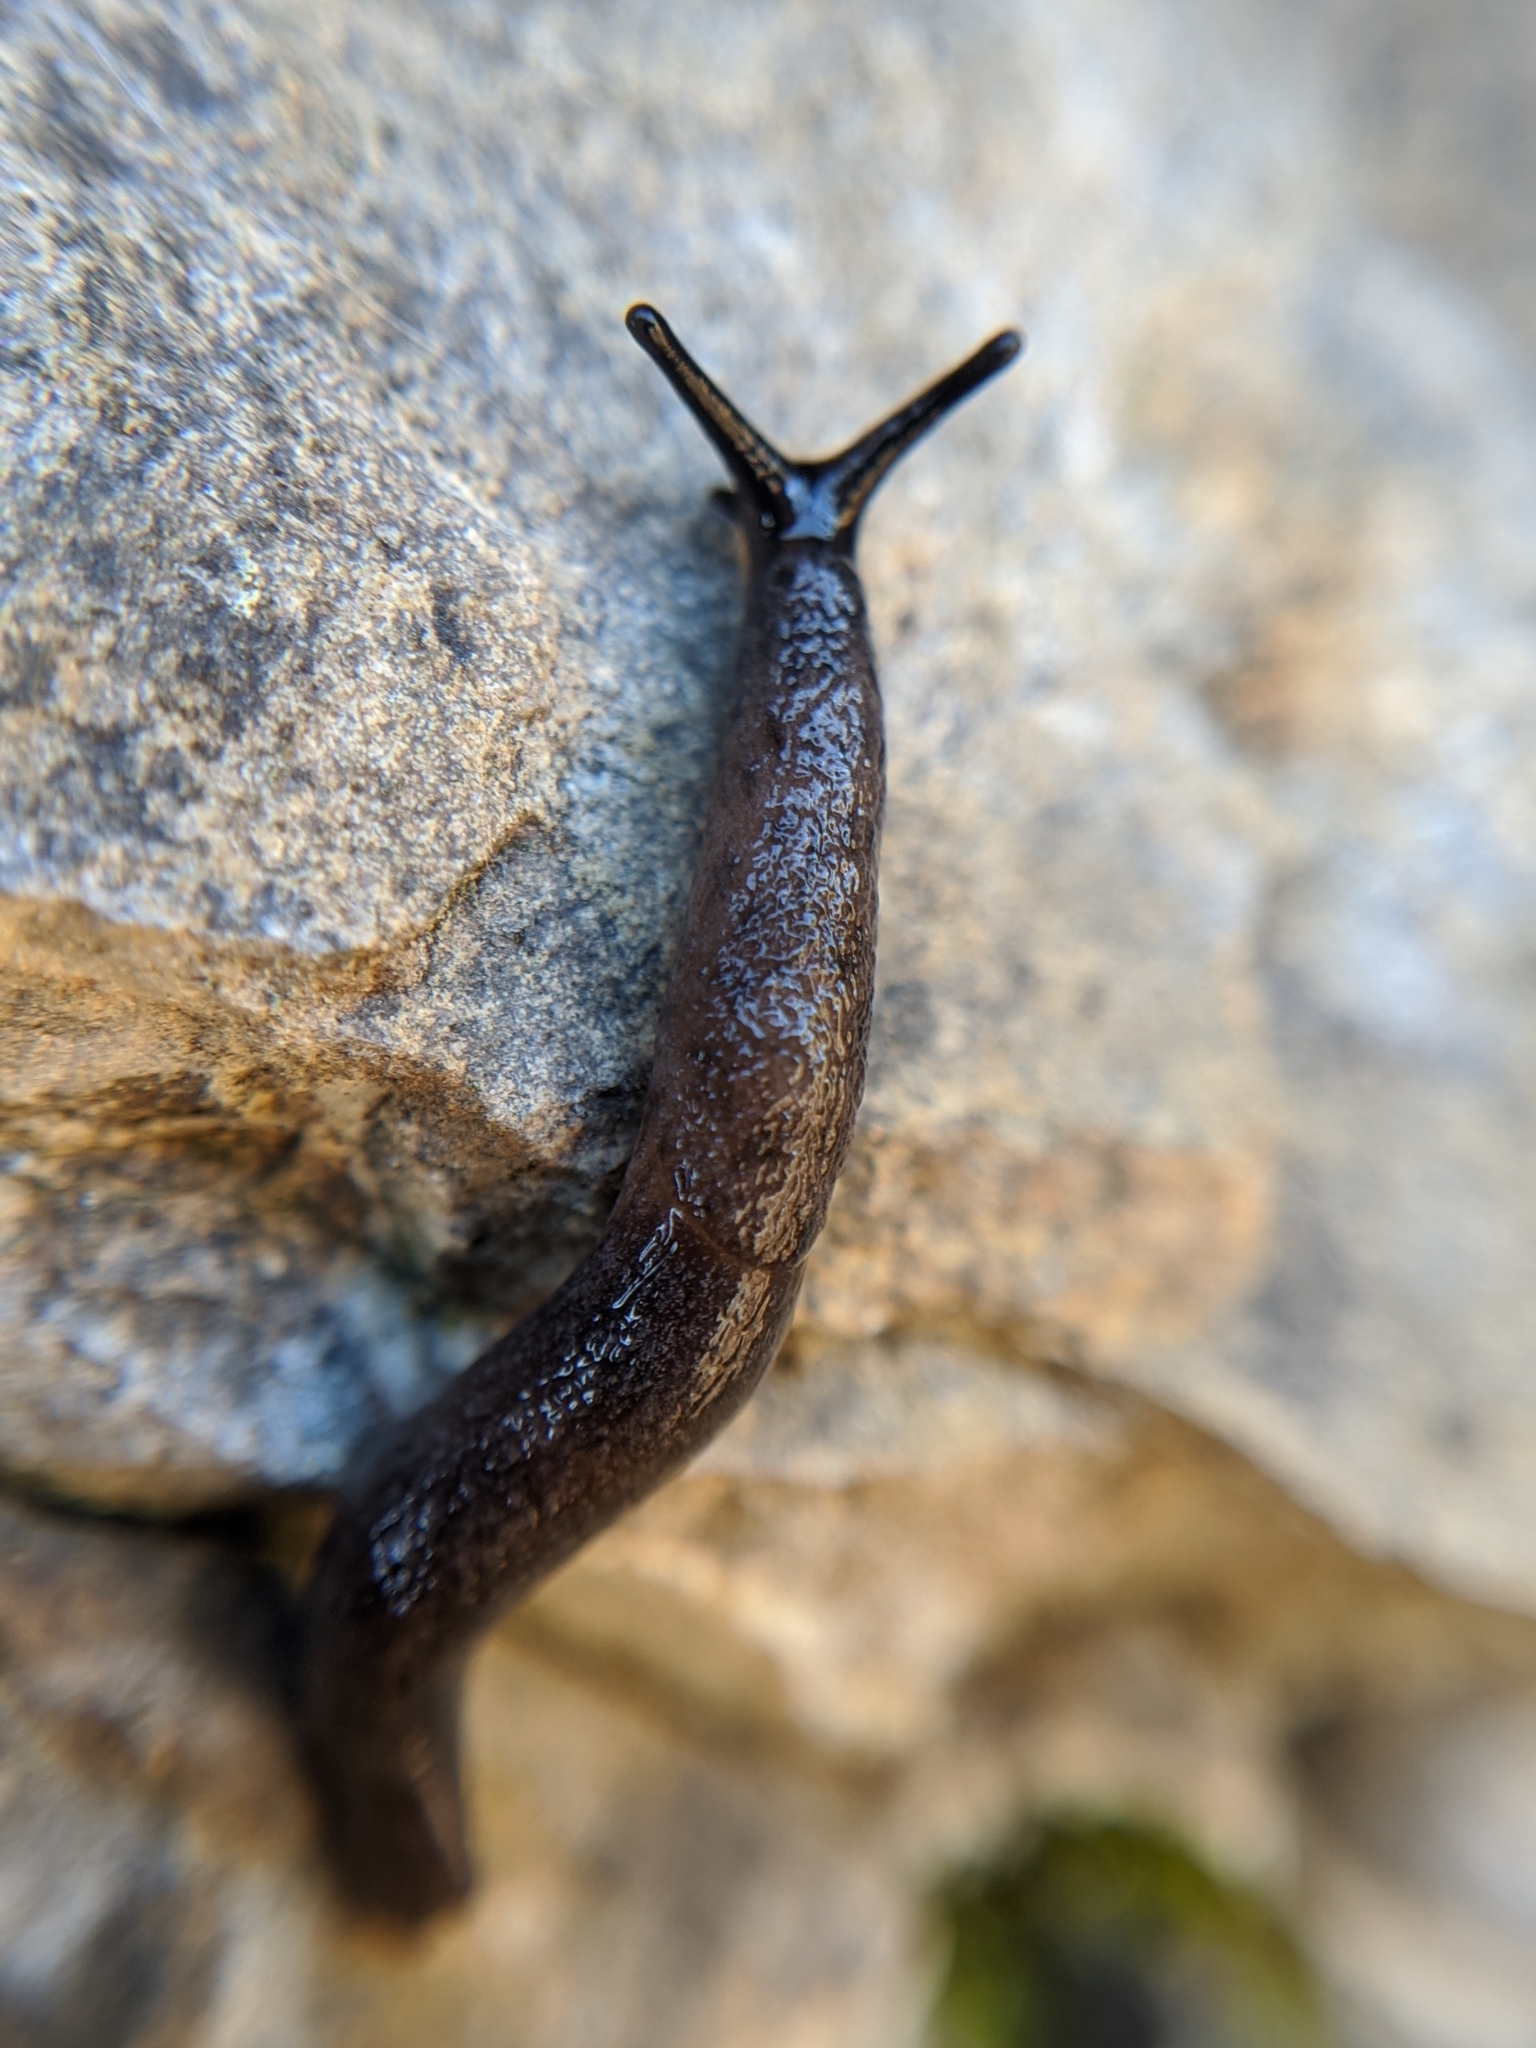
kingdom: Animalia
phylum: Mollusca
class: Gastropoda
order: Stylommatophora
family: Ariolimacidae
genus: Hesperarion
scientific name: Hesperarion niger
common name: Black western slug
